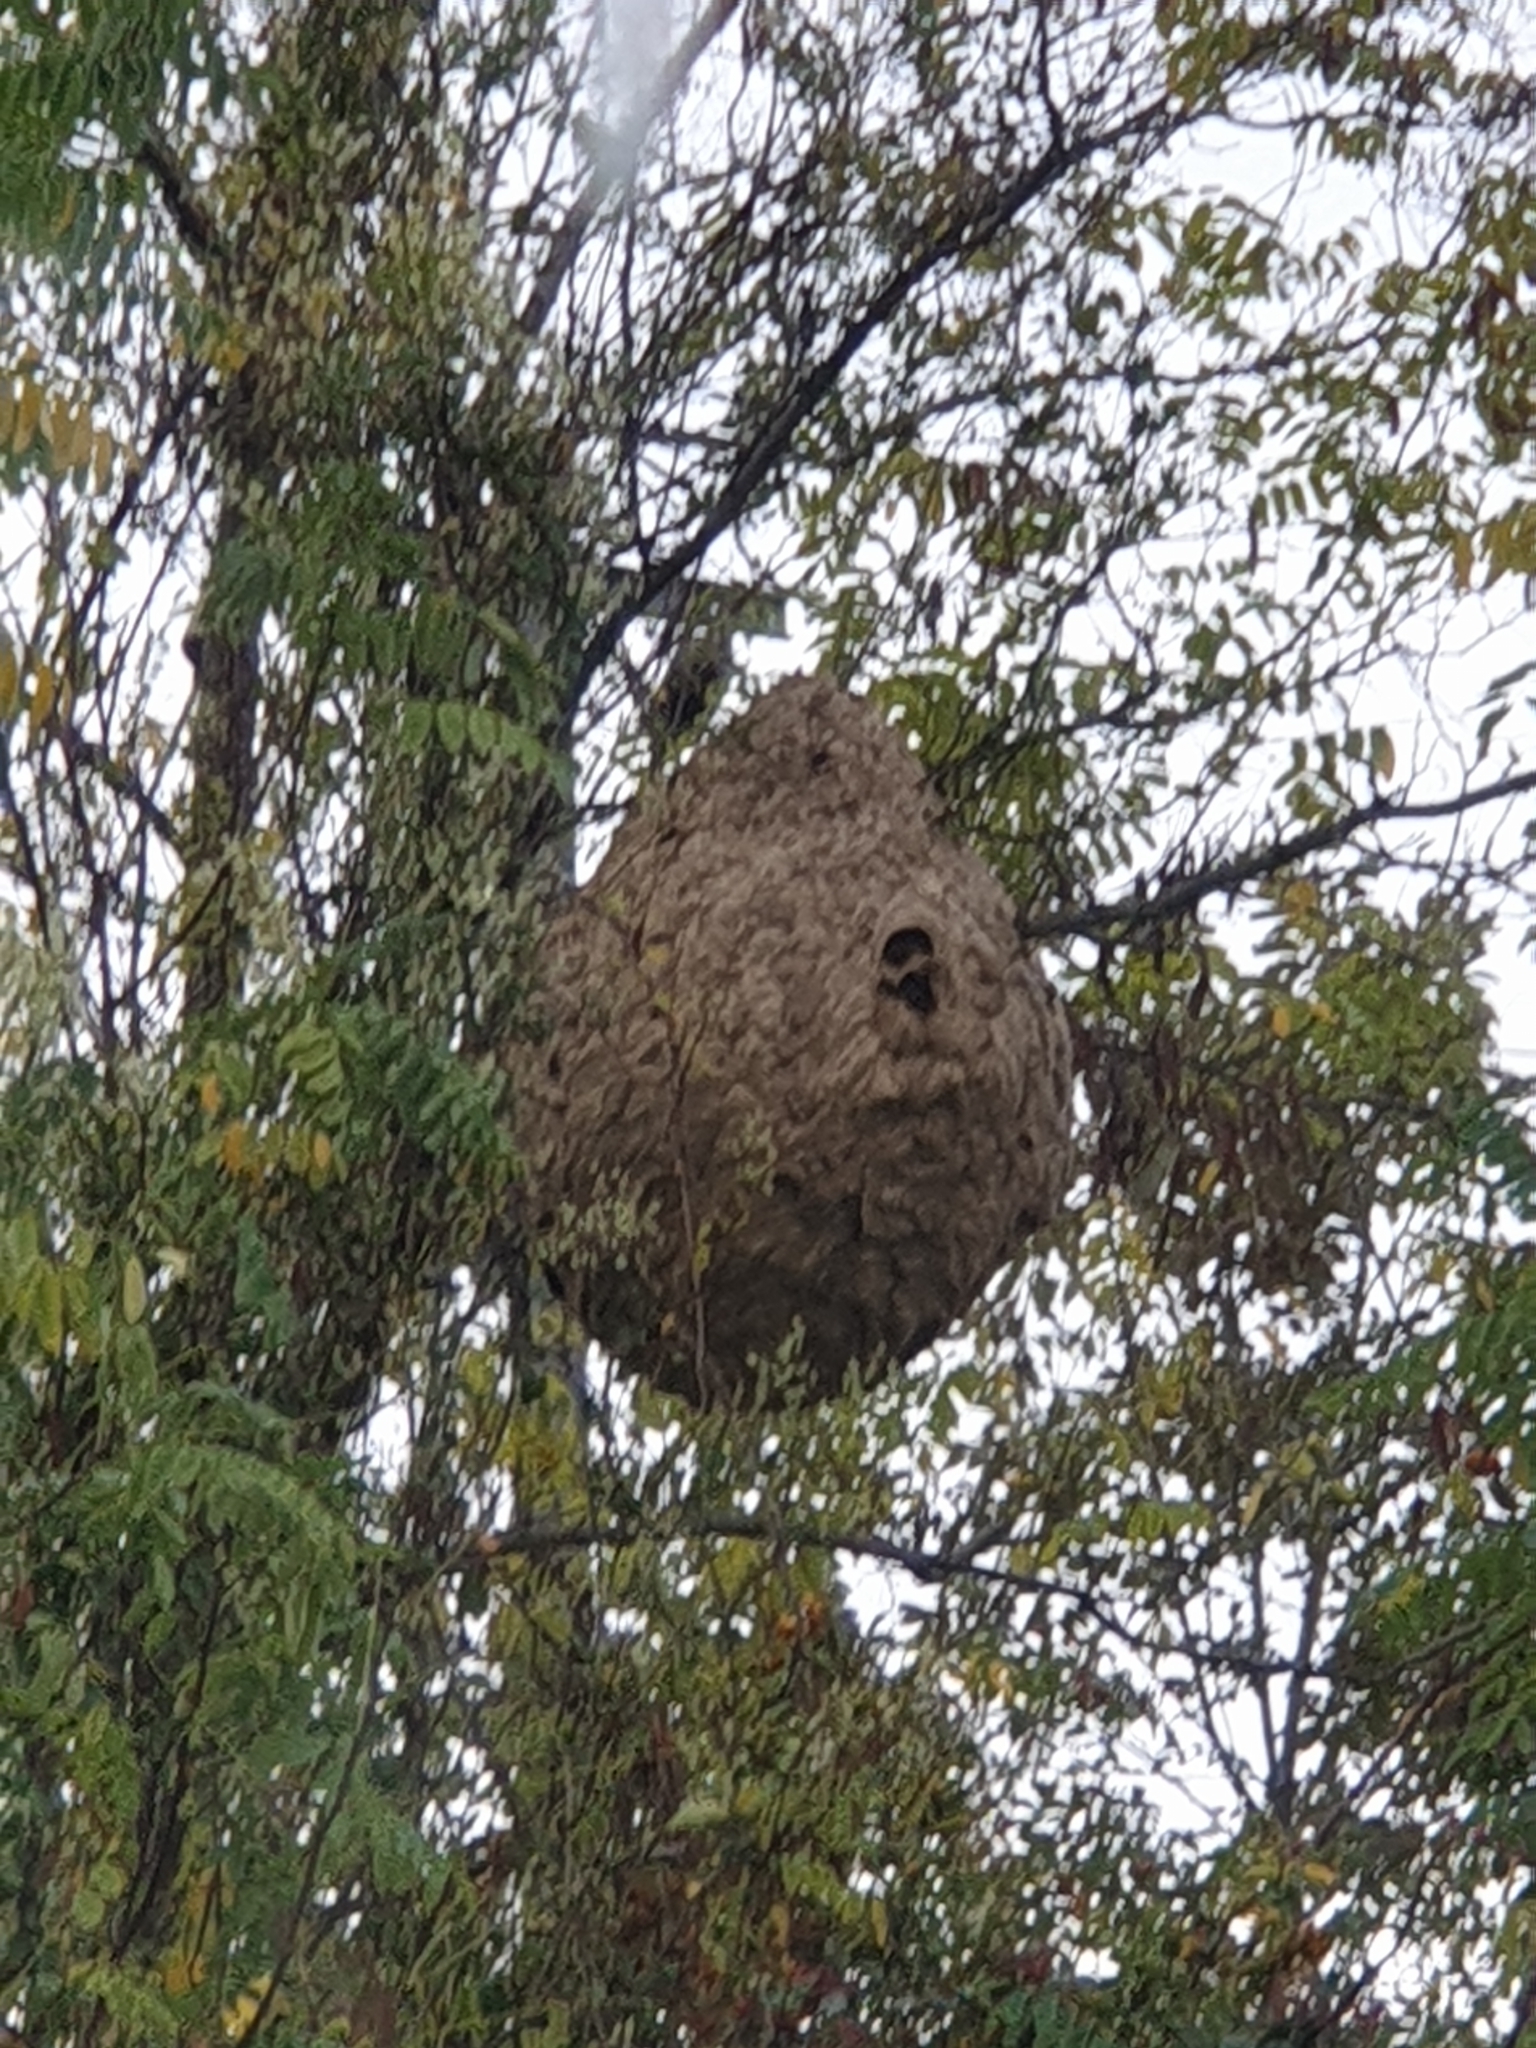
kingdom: Animalia
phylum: Arthropoda
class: Insecta
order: Hymenoptera
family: Vespidae
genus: Vespa
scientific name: Vespa velutina
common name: Asian hornet
